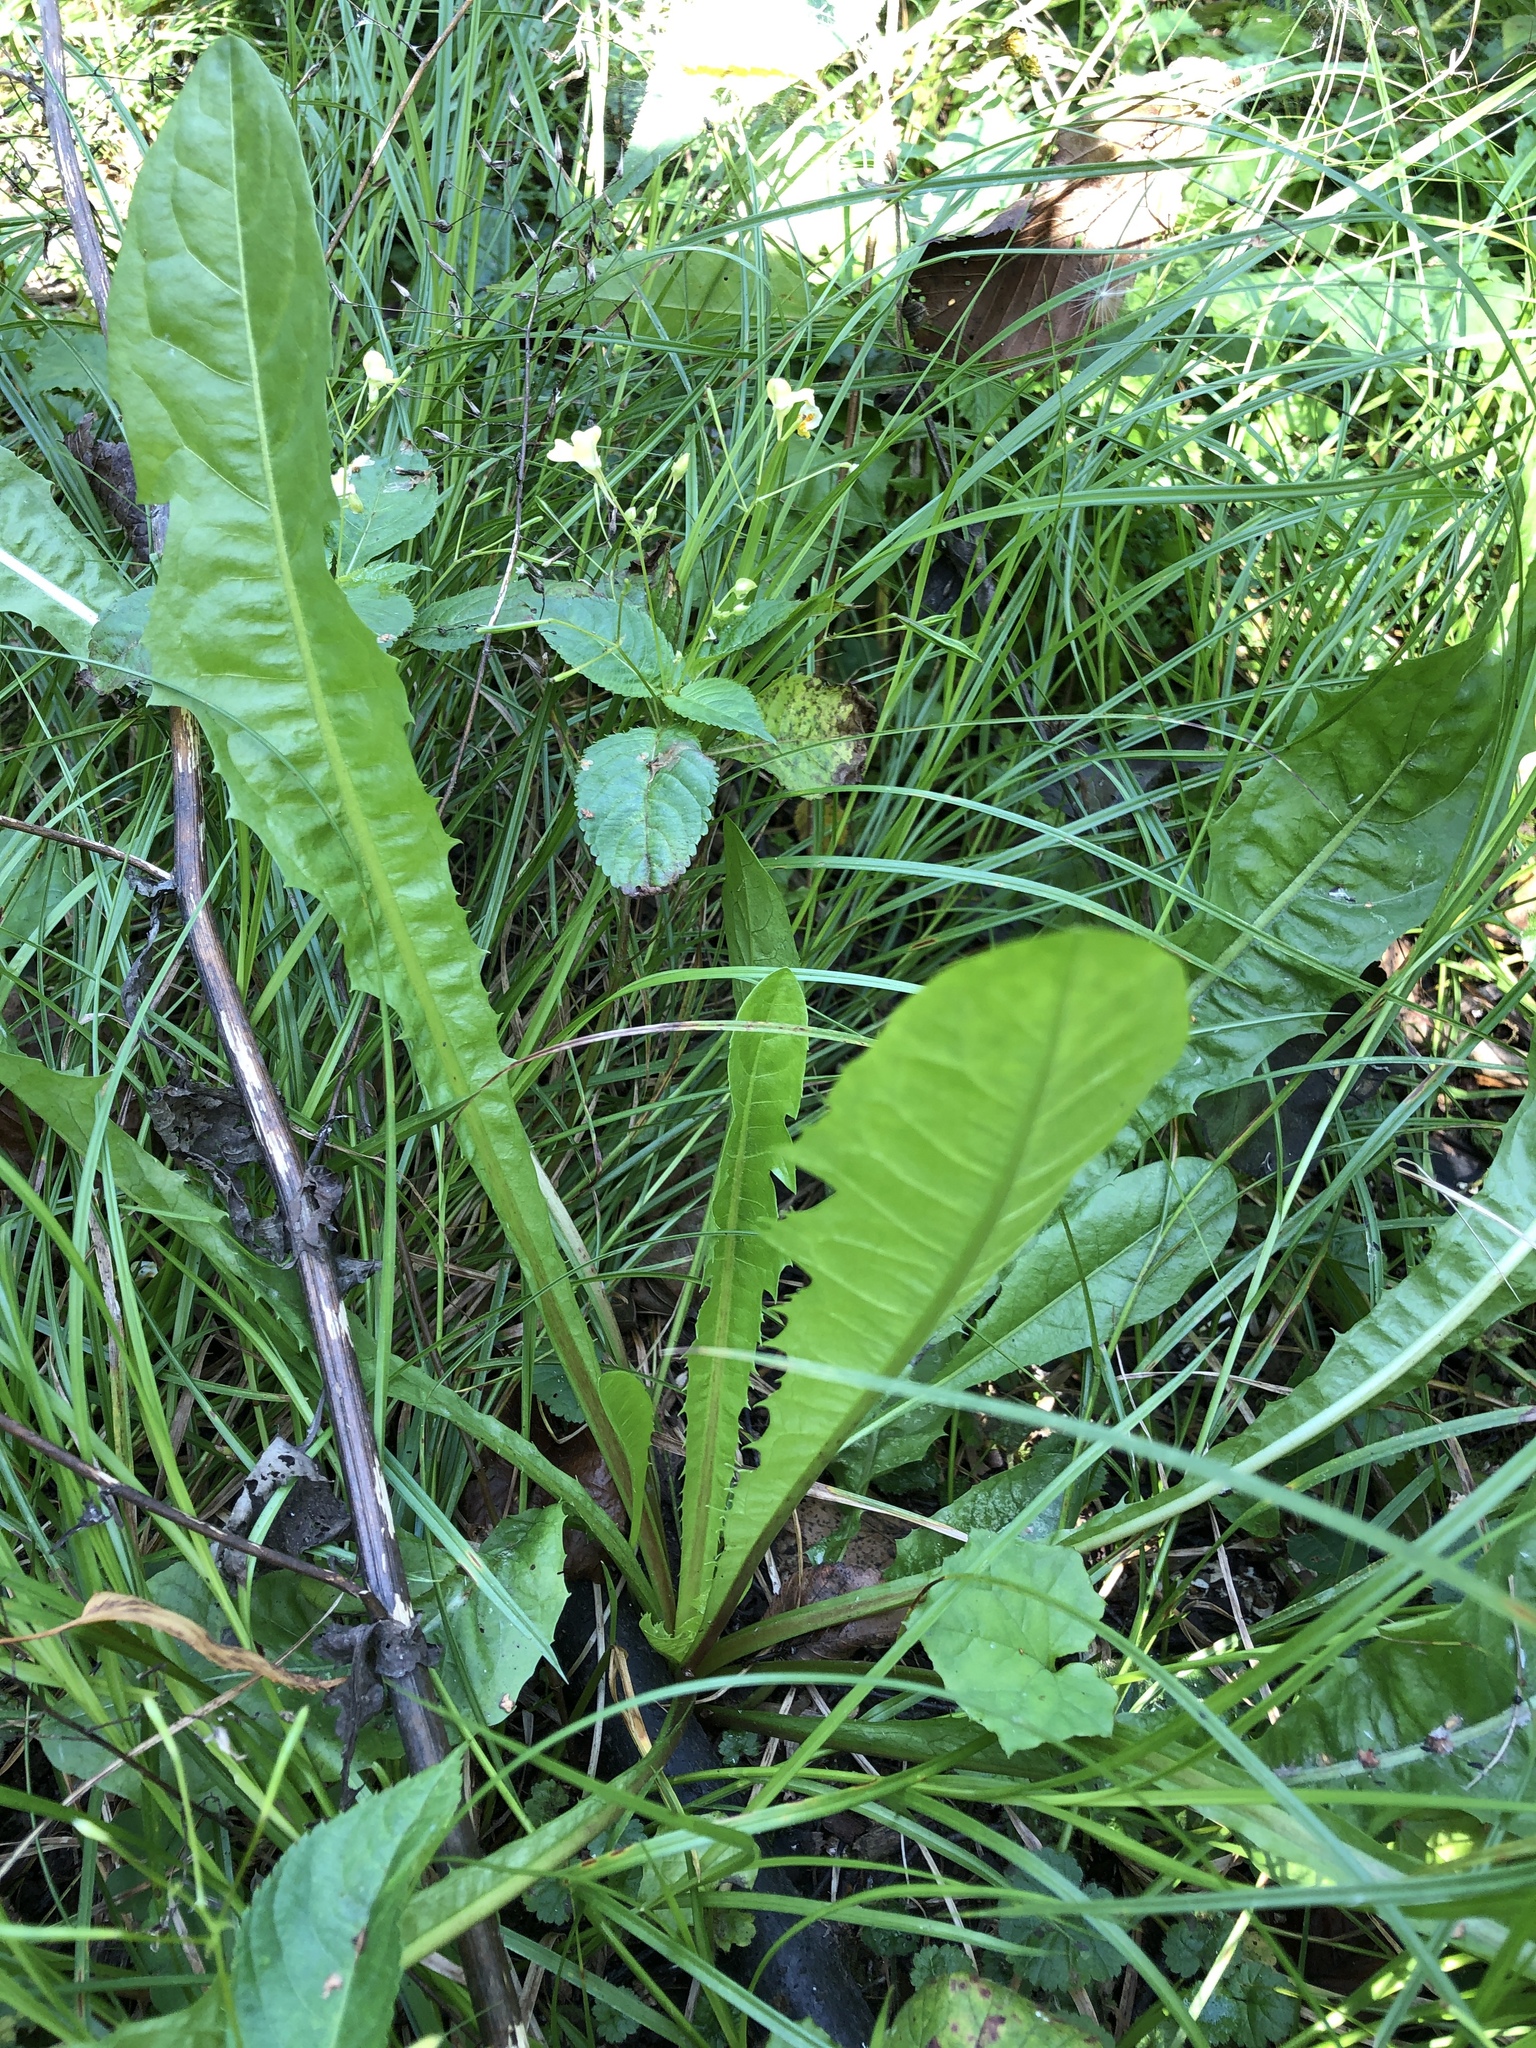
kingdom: Plantae
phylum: Tracheophyta
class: Magnoliopsida
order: Asterales
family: Asteraceae
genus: Taraxacum
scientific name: Taraxacum officinale
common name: Common dandelion
